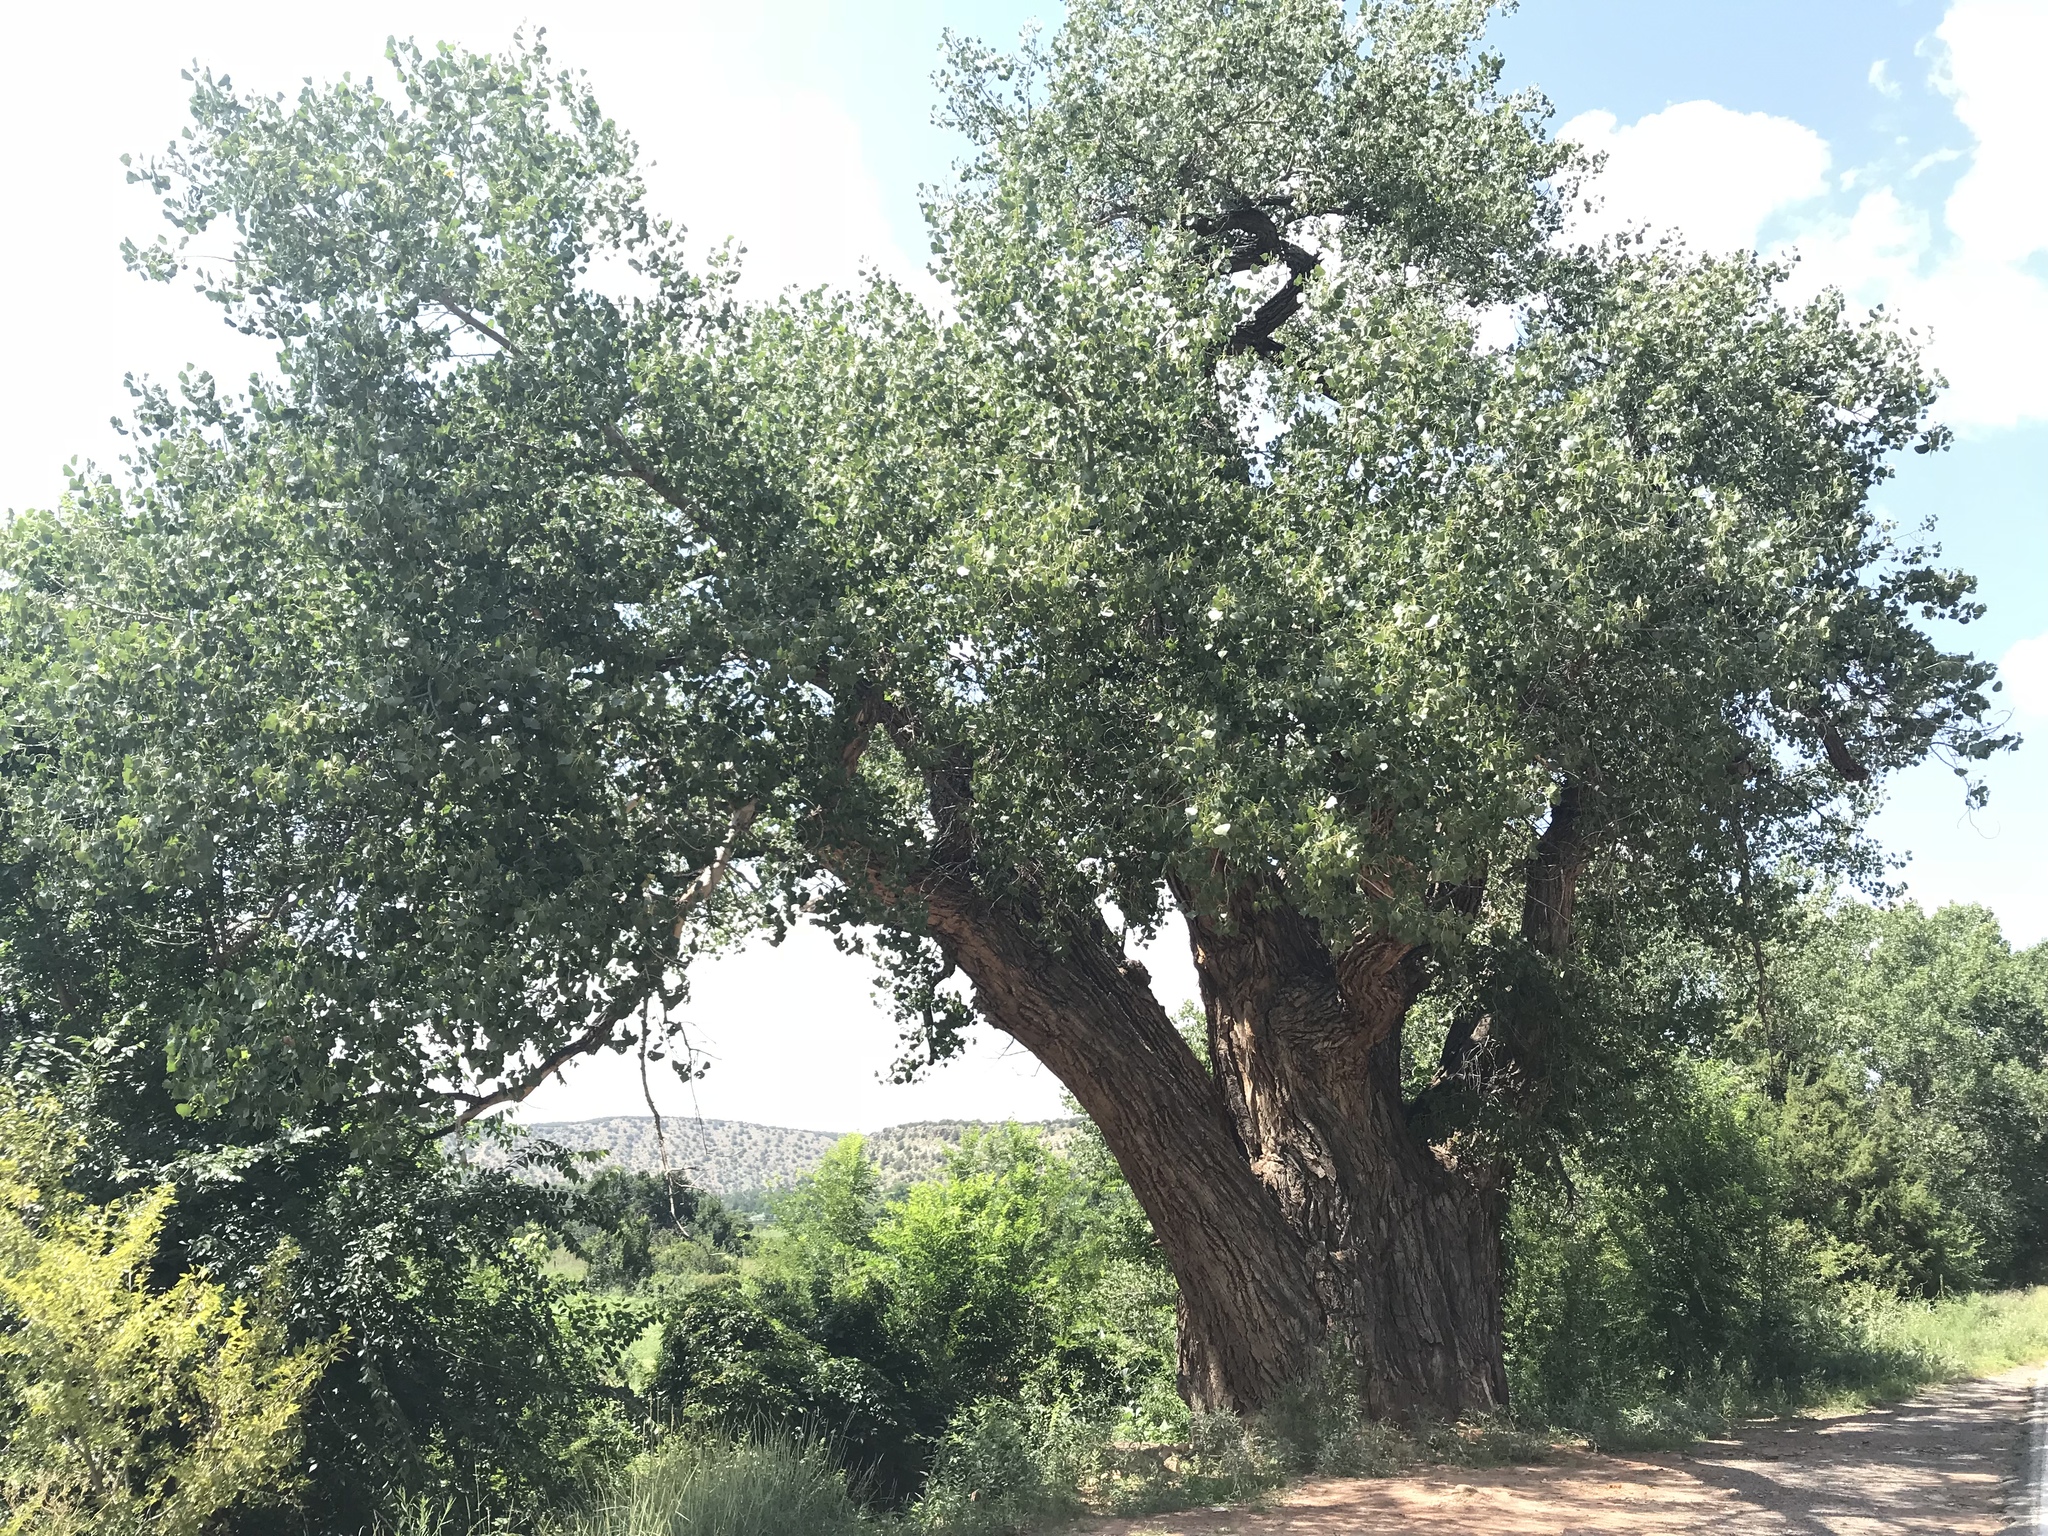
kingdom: Plantae
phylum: Tracheophyta
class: Magnoliopsida
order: Malpighiales
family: Salicaceae
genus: Populus
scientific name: Populus deltoides
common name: Eastern cottonwood
